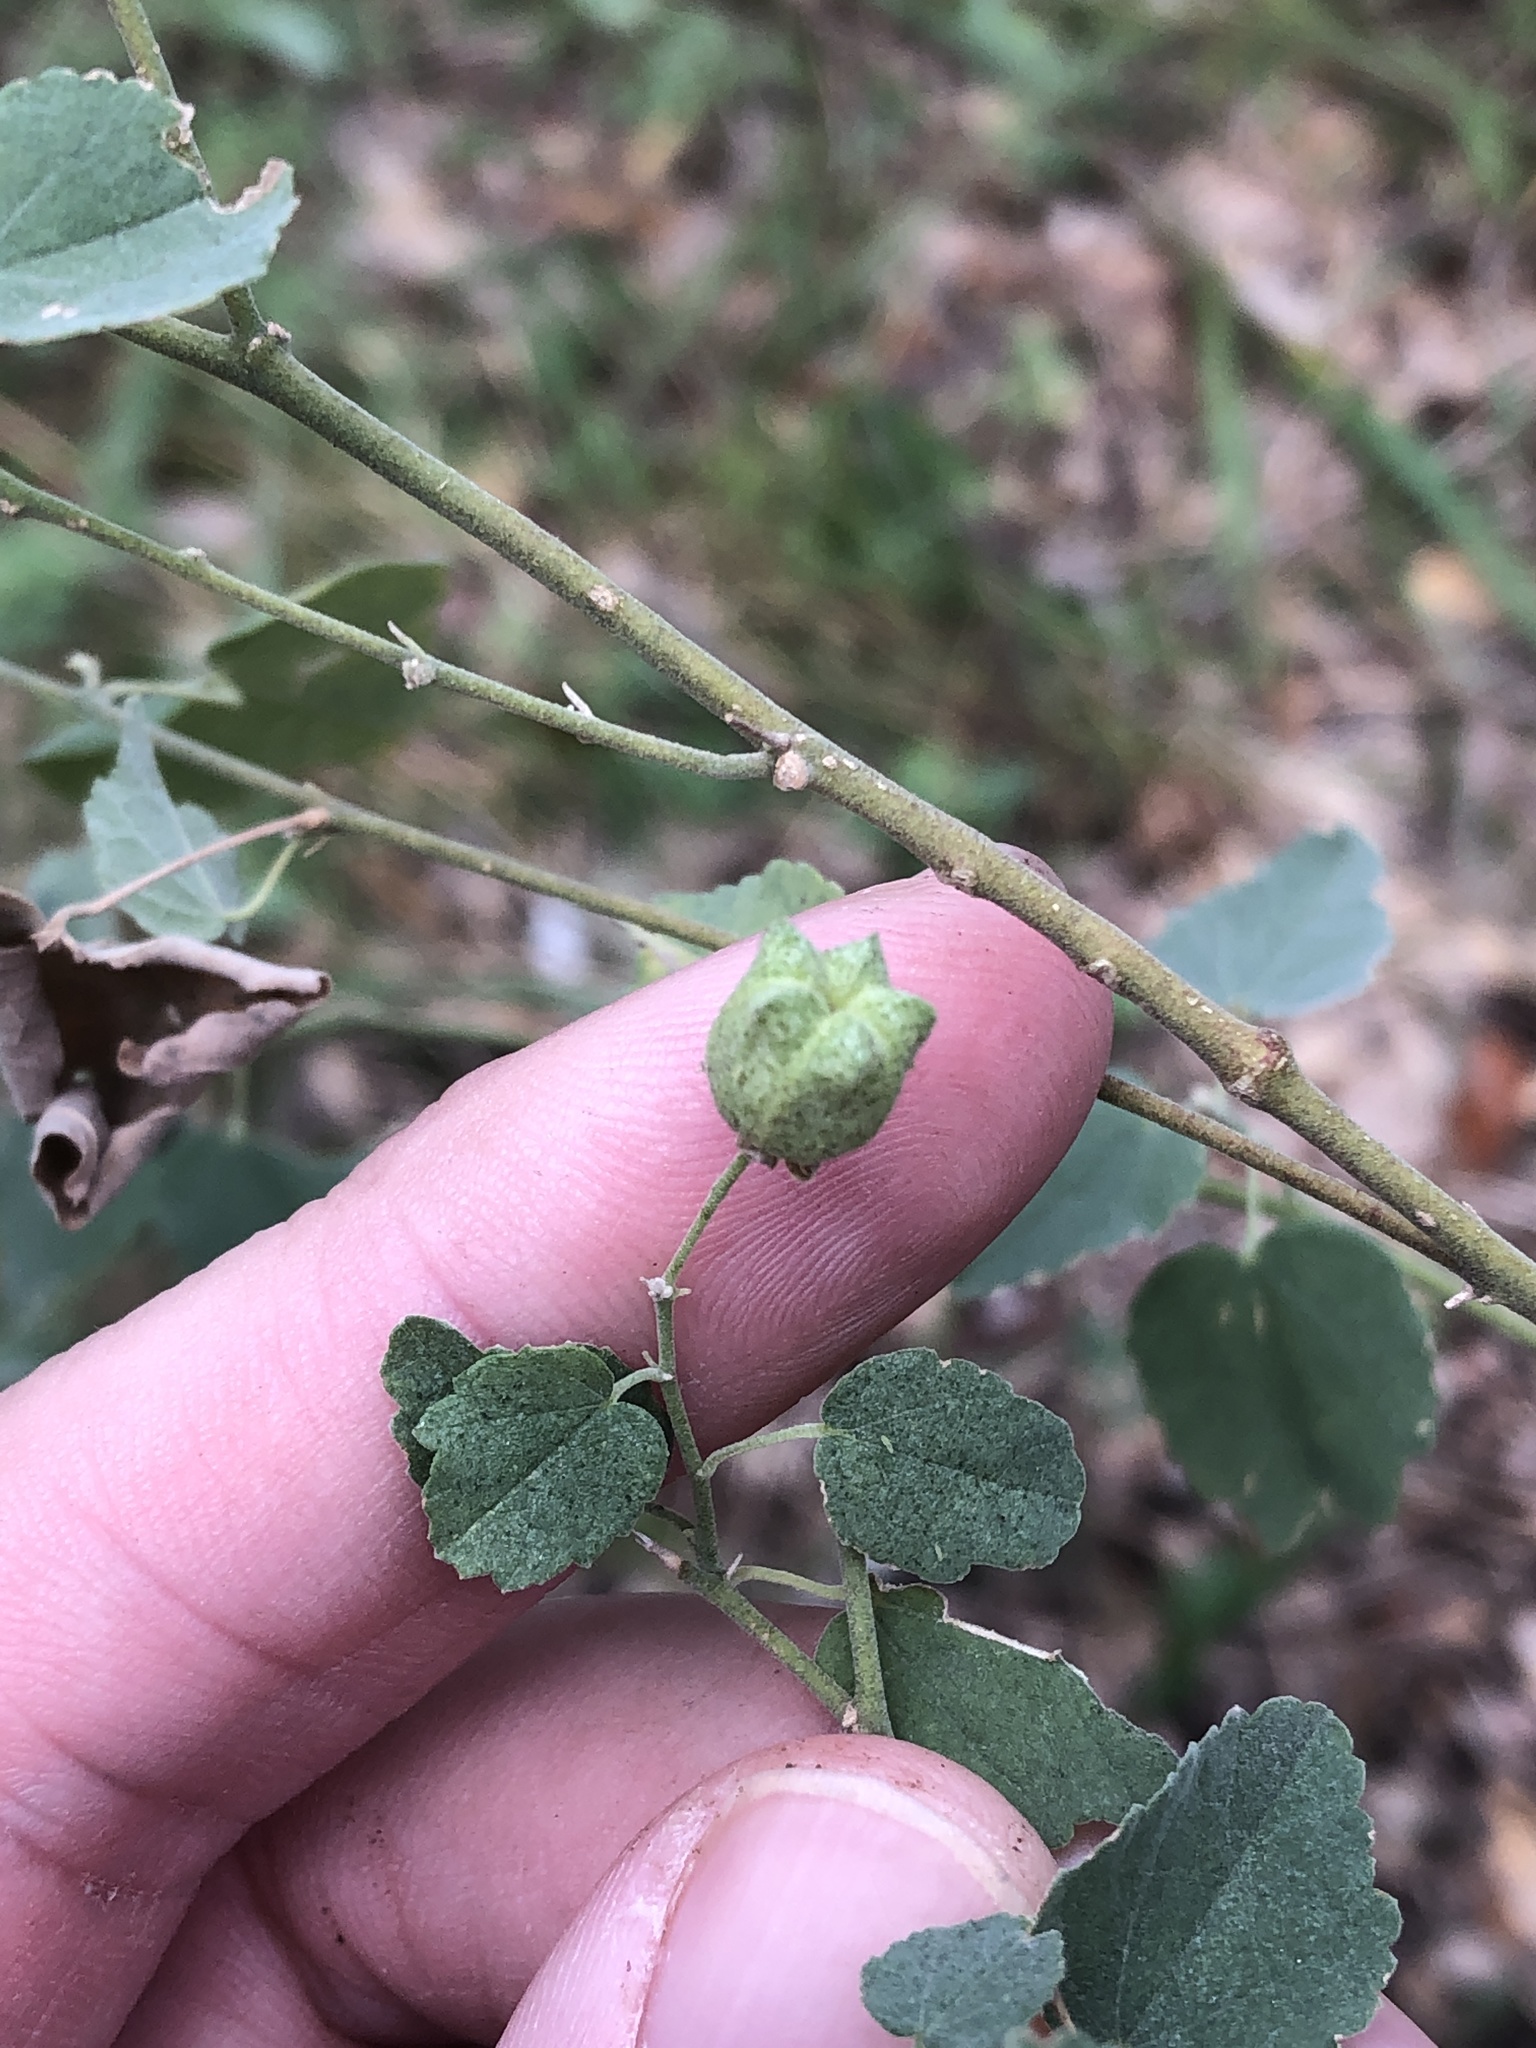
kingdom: Plantae
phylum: Tracheophyta
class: Magnoliopsida
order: Malvales
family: Malvaceae
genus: Abutilon
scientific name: Abutilon fruticosum
